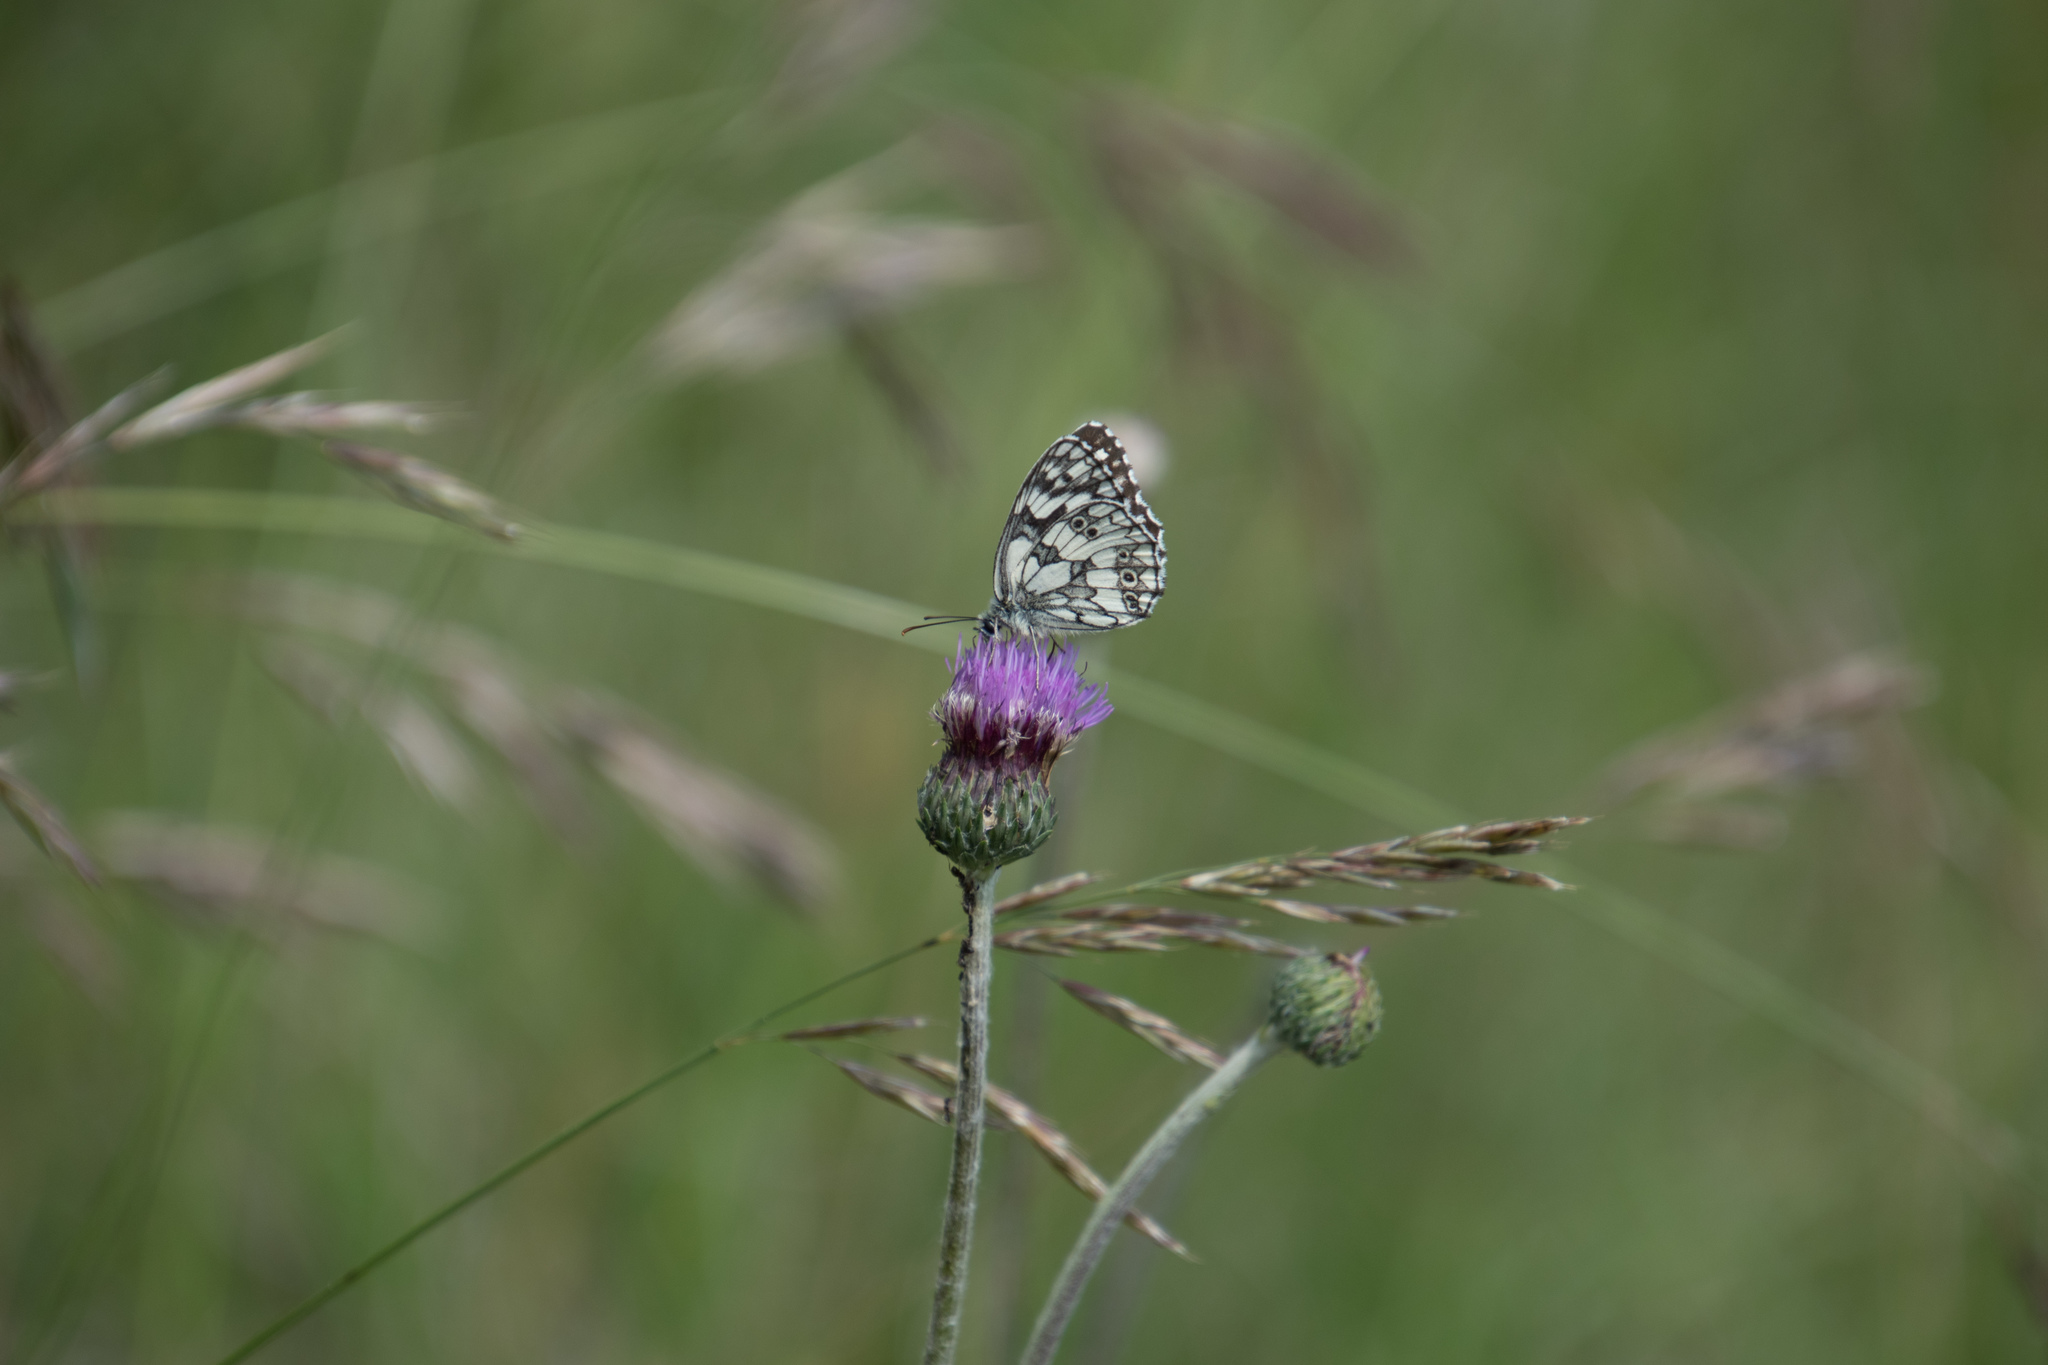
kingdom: Animalia
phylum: Arthropoda
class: Insecta
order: Lepidoptera
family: Nymphalidae
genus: Melanargia
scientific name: Melanargia galathea
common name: Marbled white
